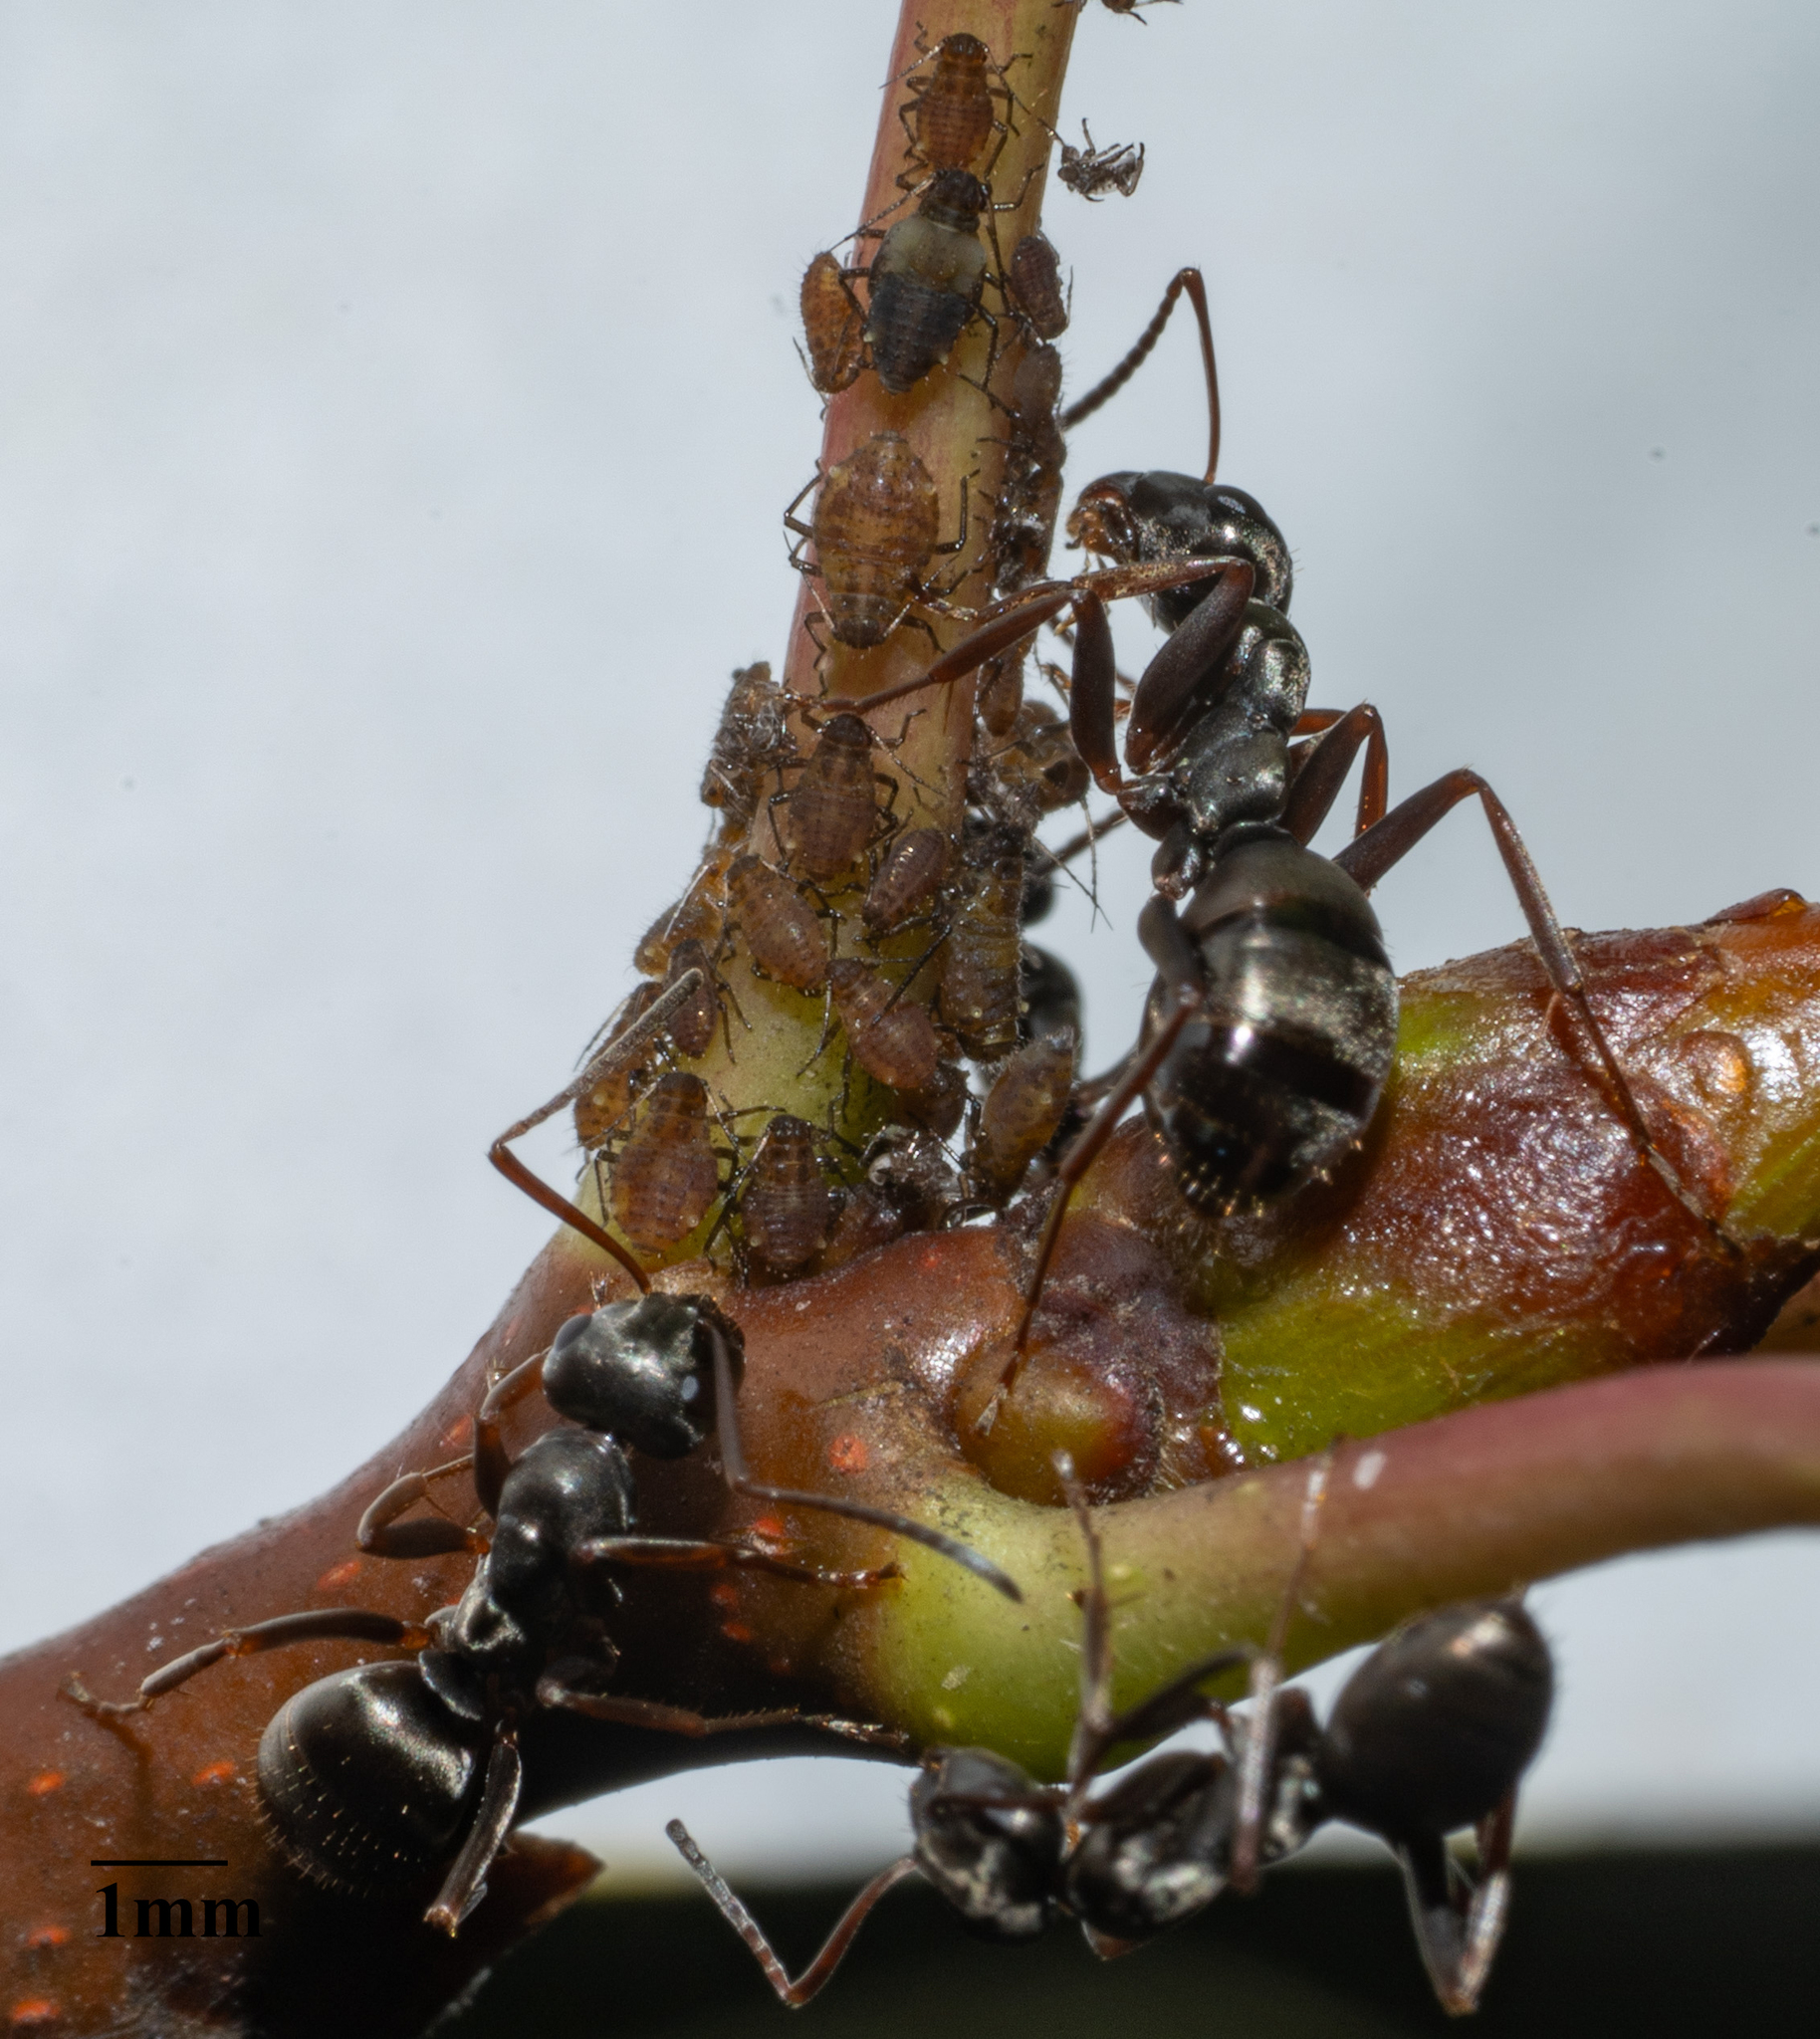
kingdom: Animalia
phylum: Arthropoda
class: Insecta
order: Hymenoptera
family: Formicidae
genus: Formica
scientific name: Formica fusca
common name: Silky ant
